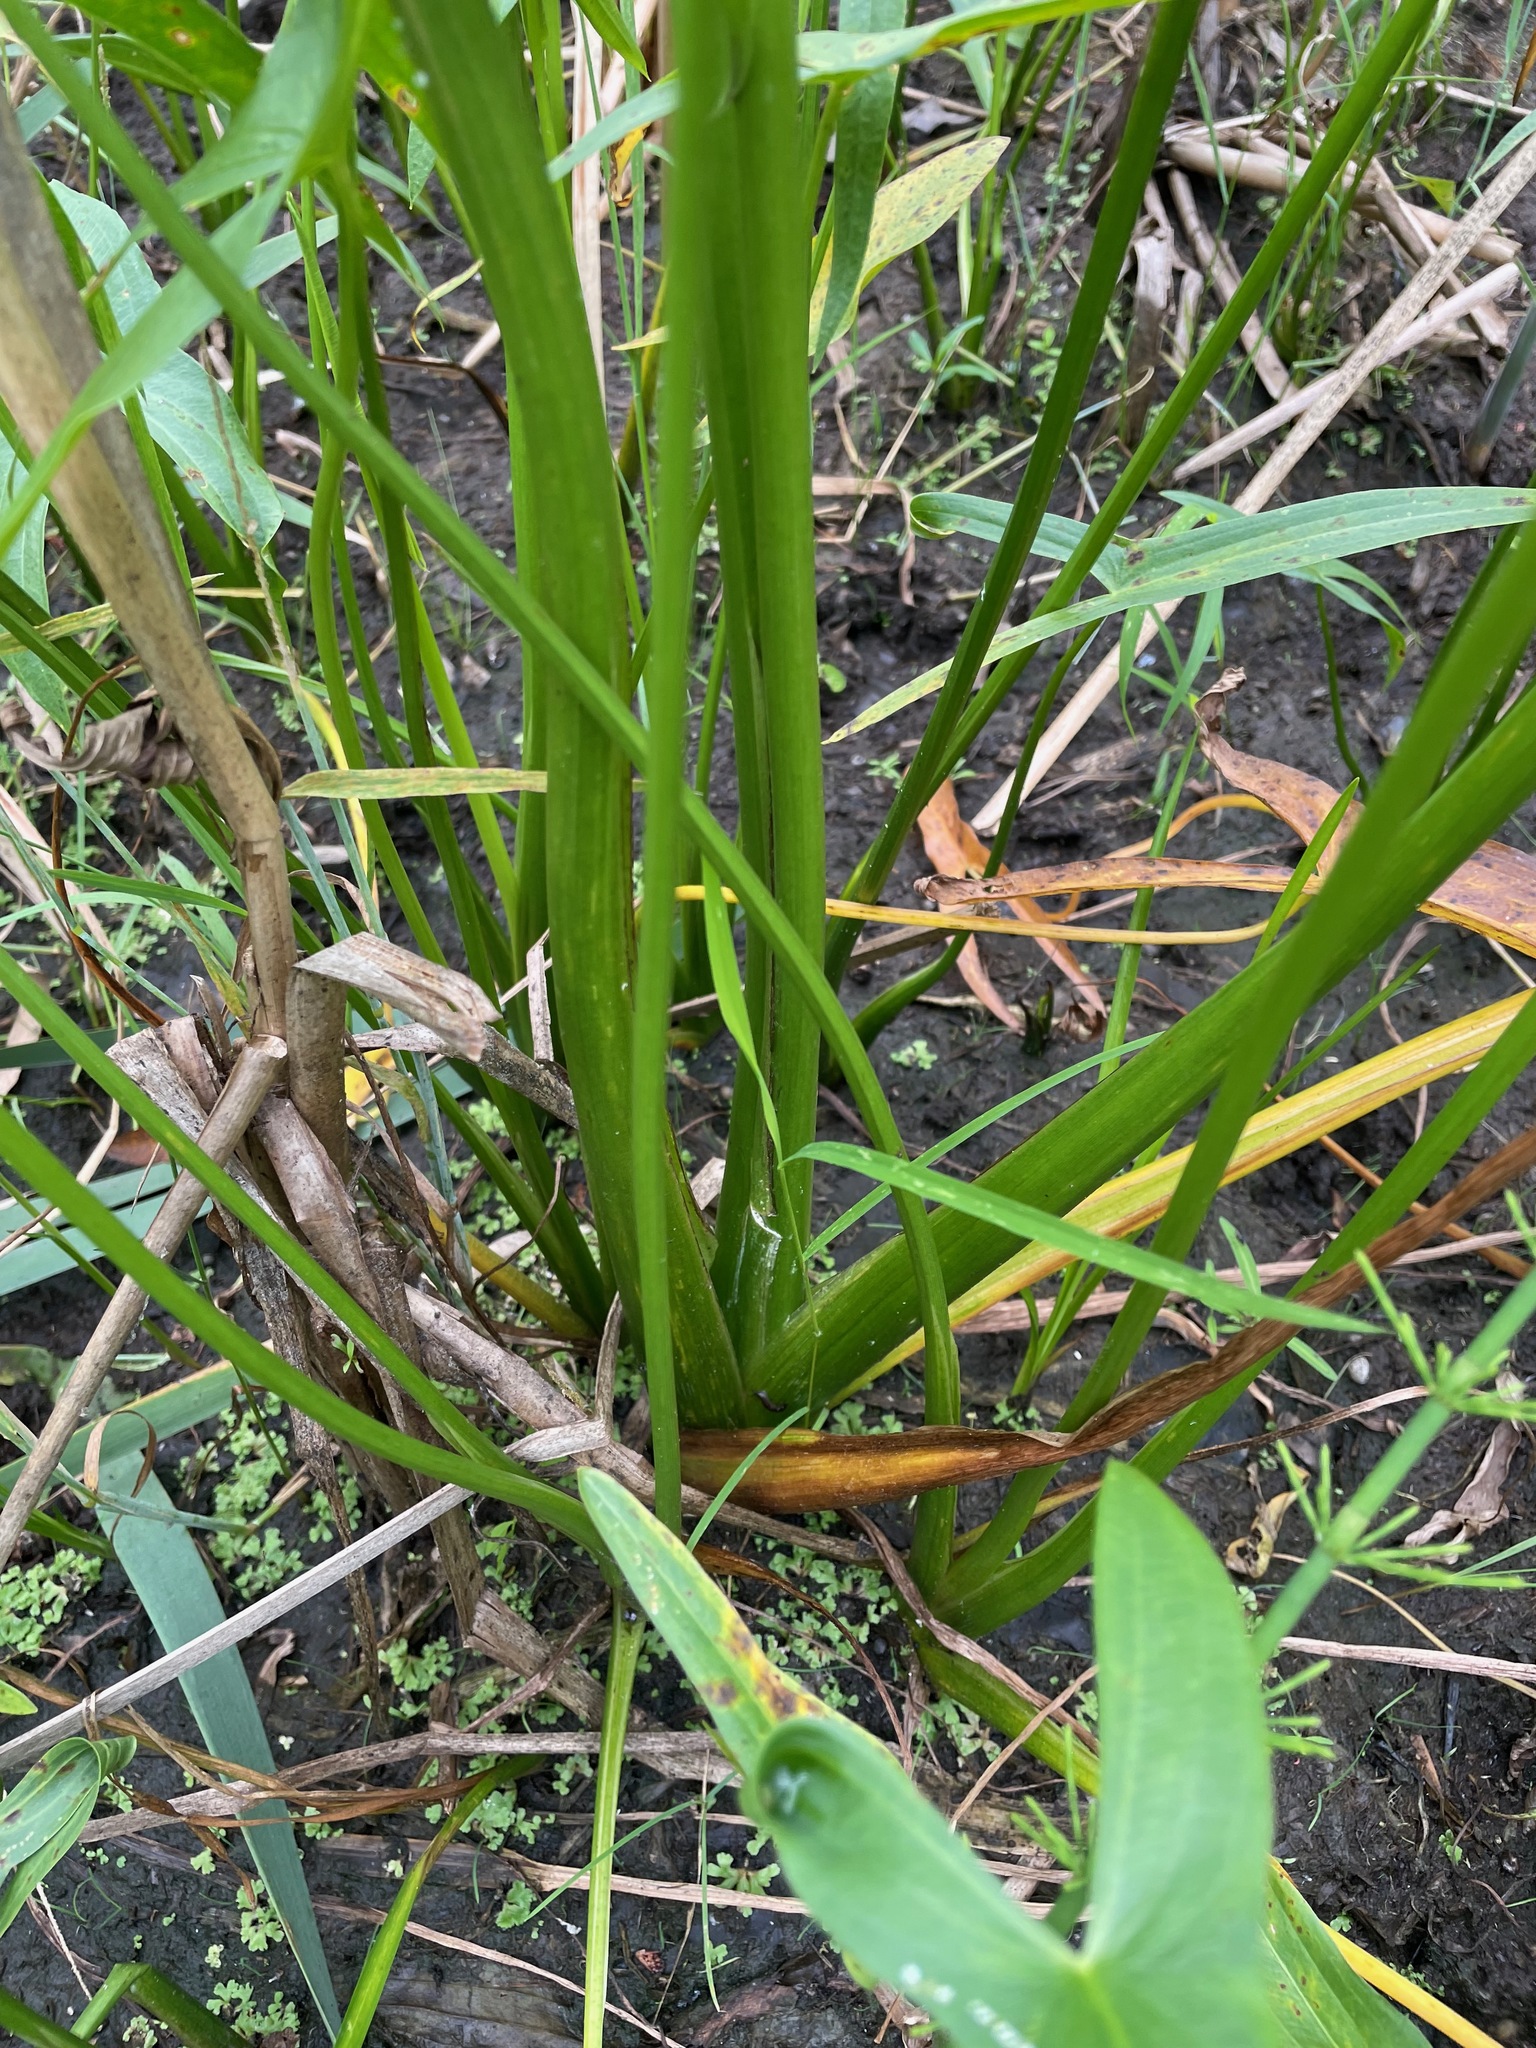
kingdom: Plantae
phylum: Tracheophyta
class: Liliopsida
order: Alismatales
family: Alismataceae
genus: Sagittaria
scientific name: Sagittaria latifolia
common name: Duck-potato
